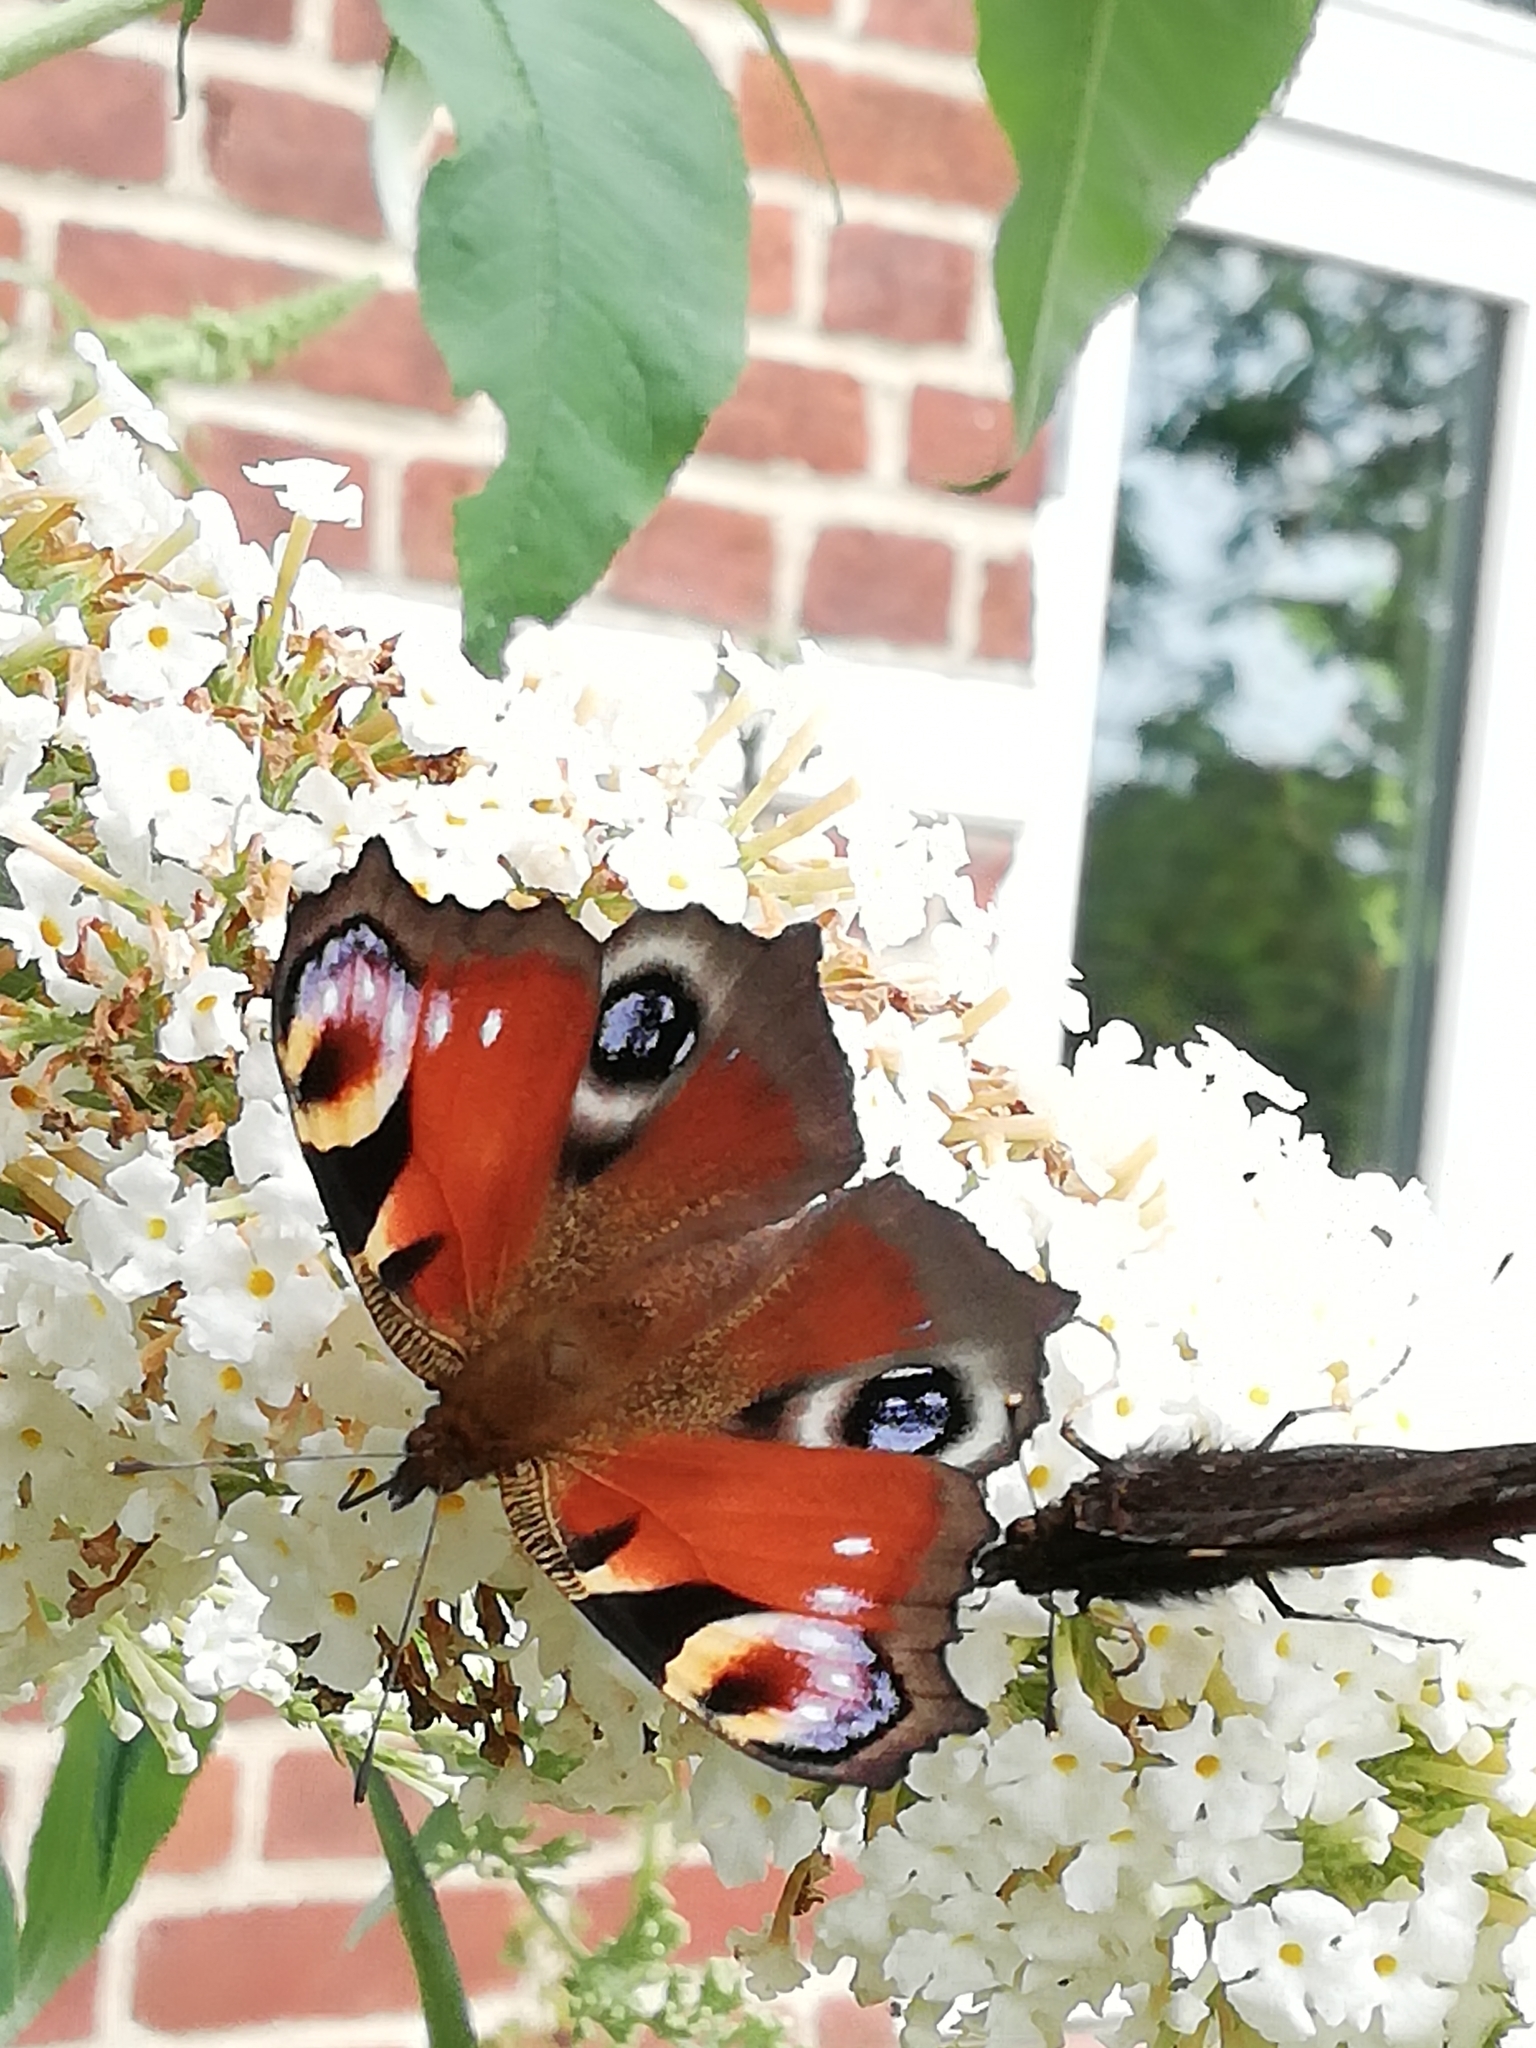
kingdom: Animalia
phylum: Arthropoda
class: Insecta
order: Lepidoptera
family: Nymphalidae
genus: Aglais
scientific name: Aglais io
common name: Peacock
